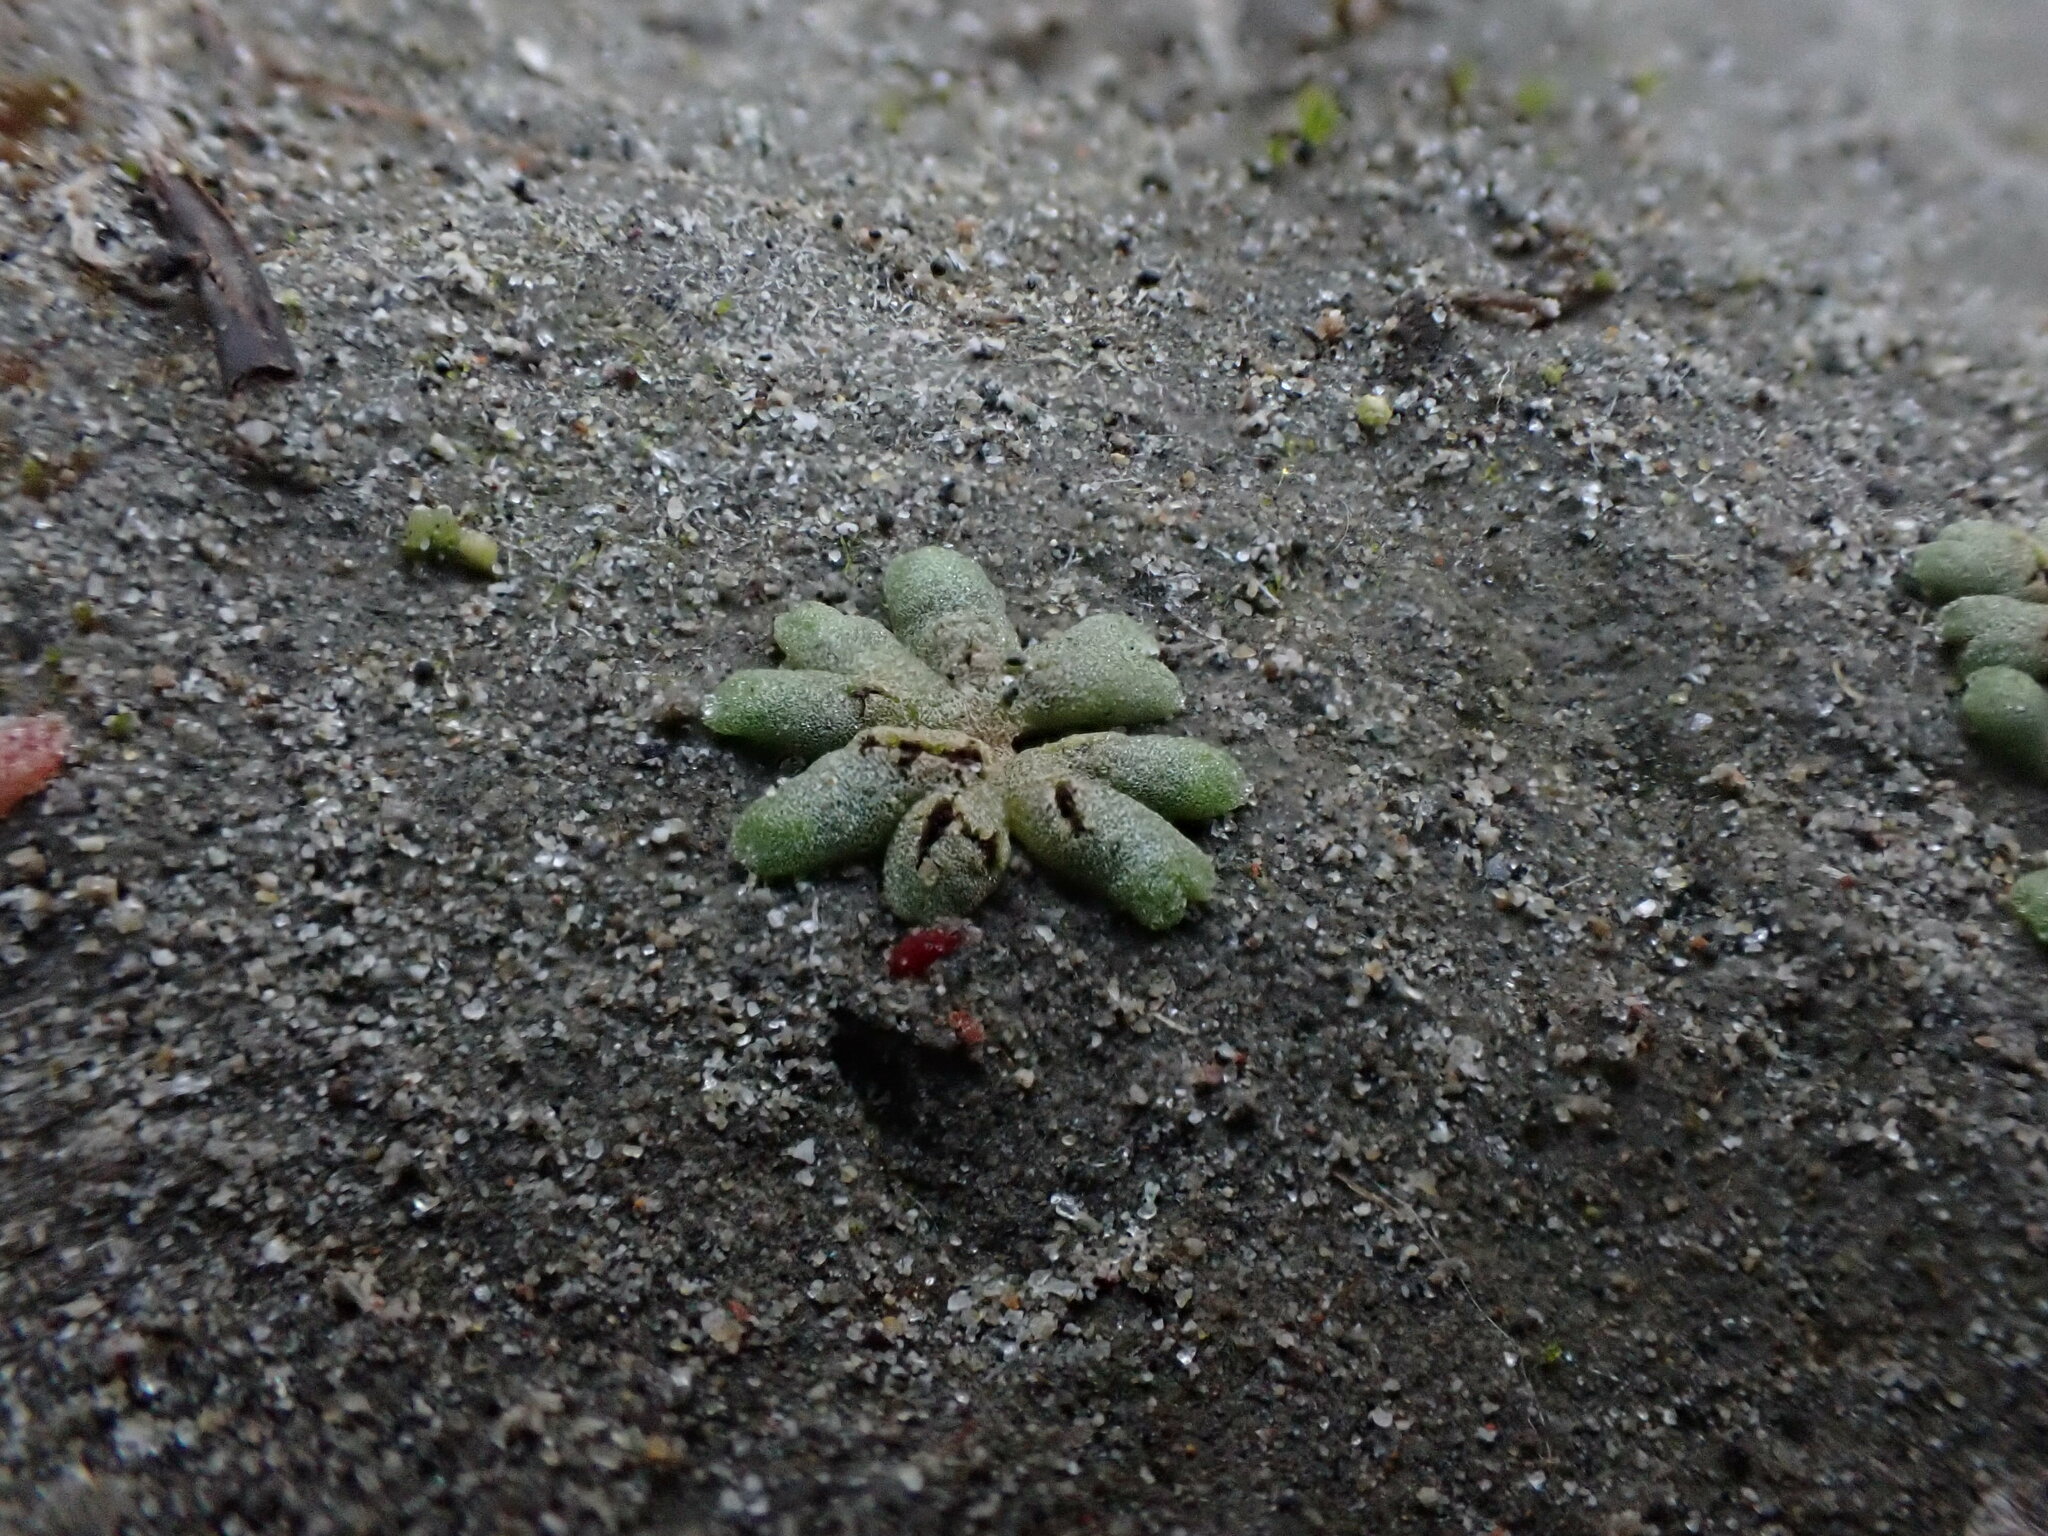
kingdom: Plantae
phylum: Marchantiophyta
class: Marchantiopsida
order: Marchantiales
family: Ricciaceae
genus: Riccia
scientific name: Riccia frostii
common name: Frost s crystalwort
